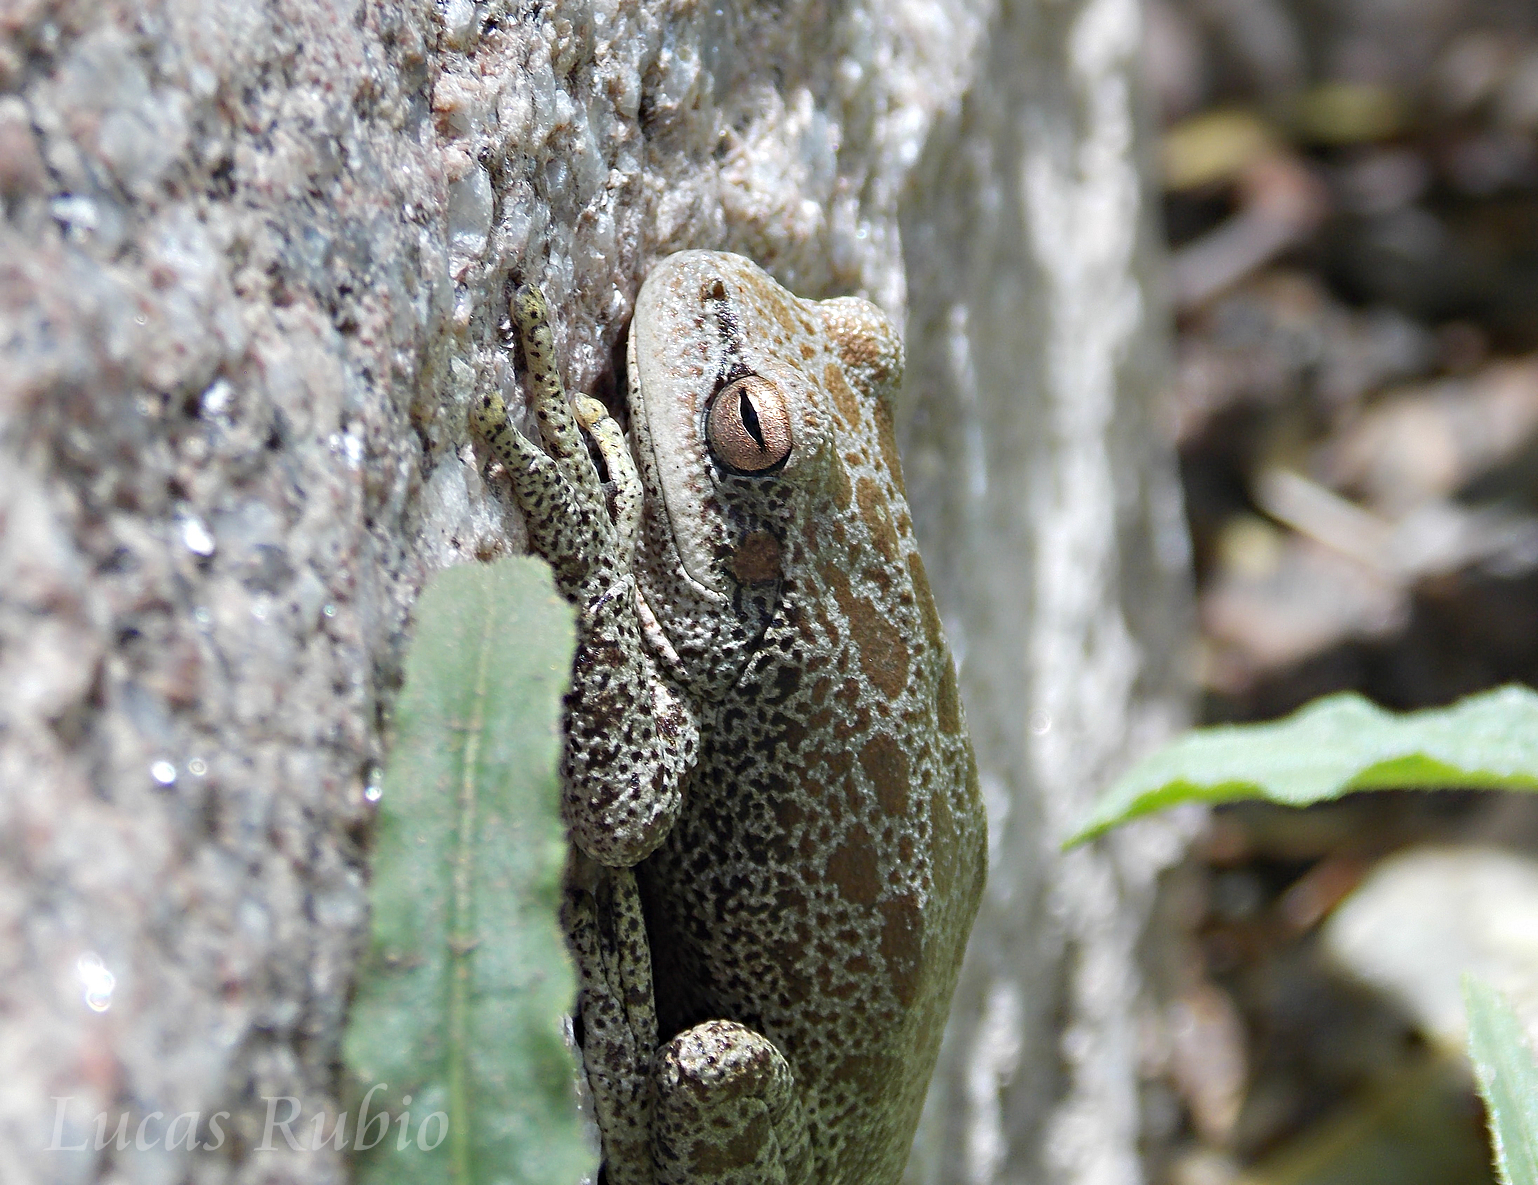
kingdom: Animalia
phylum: Chordata
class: Amphibia
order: Anura
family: Hylidae
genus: Boana
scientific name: Boana cordobae
